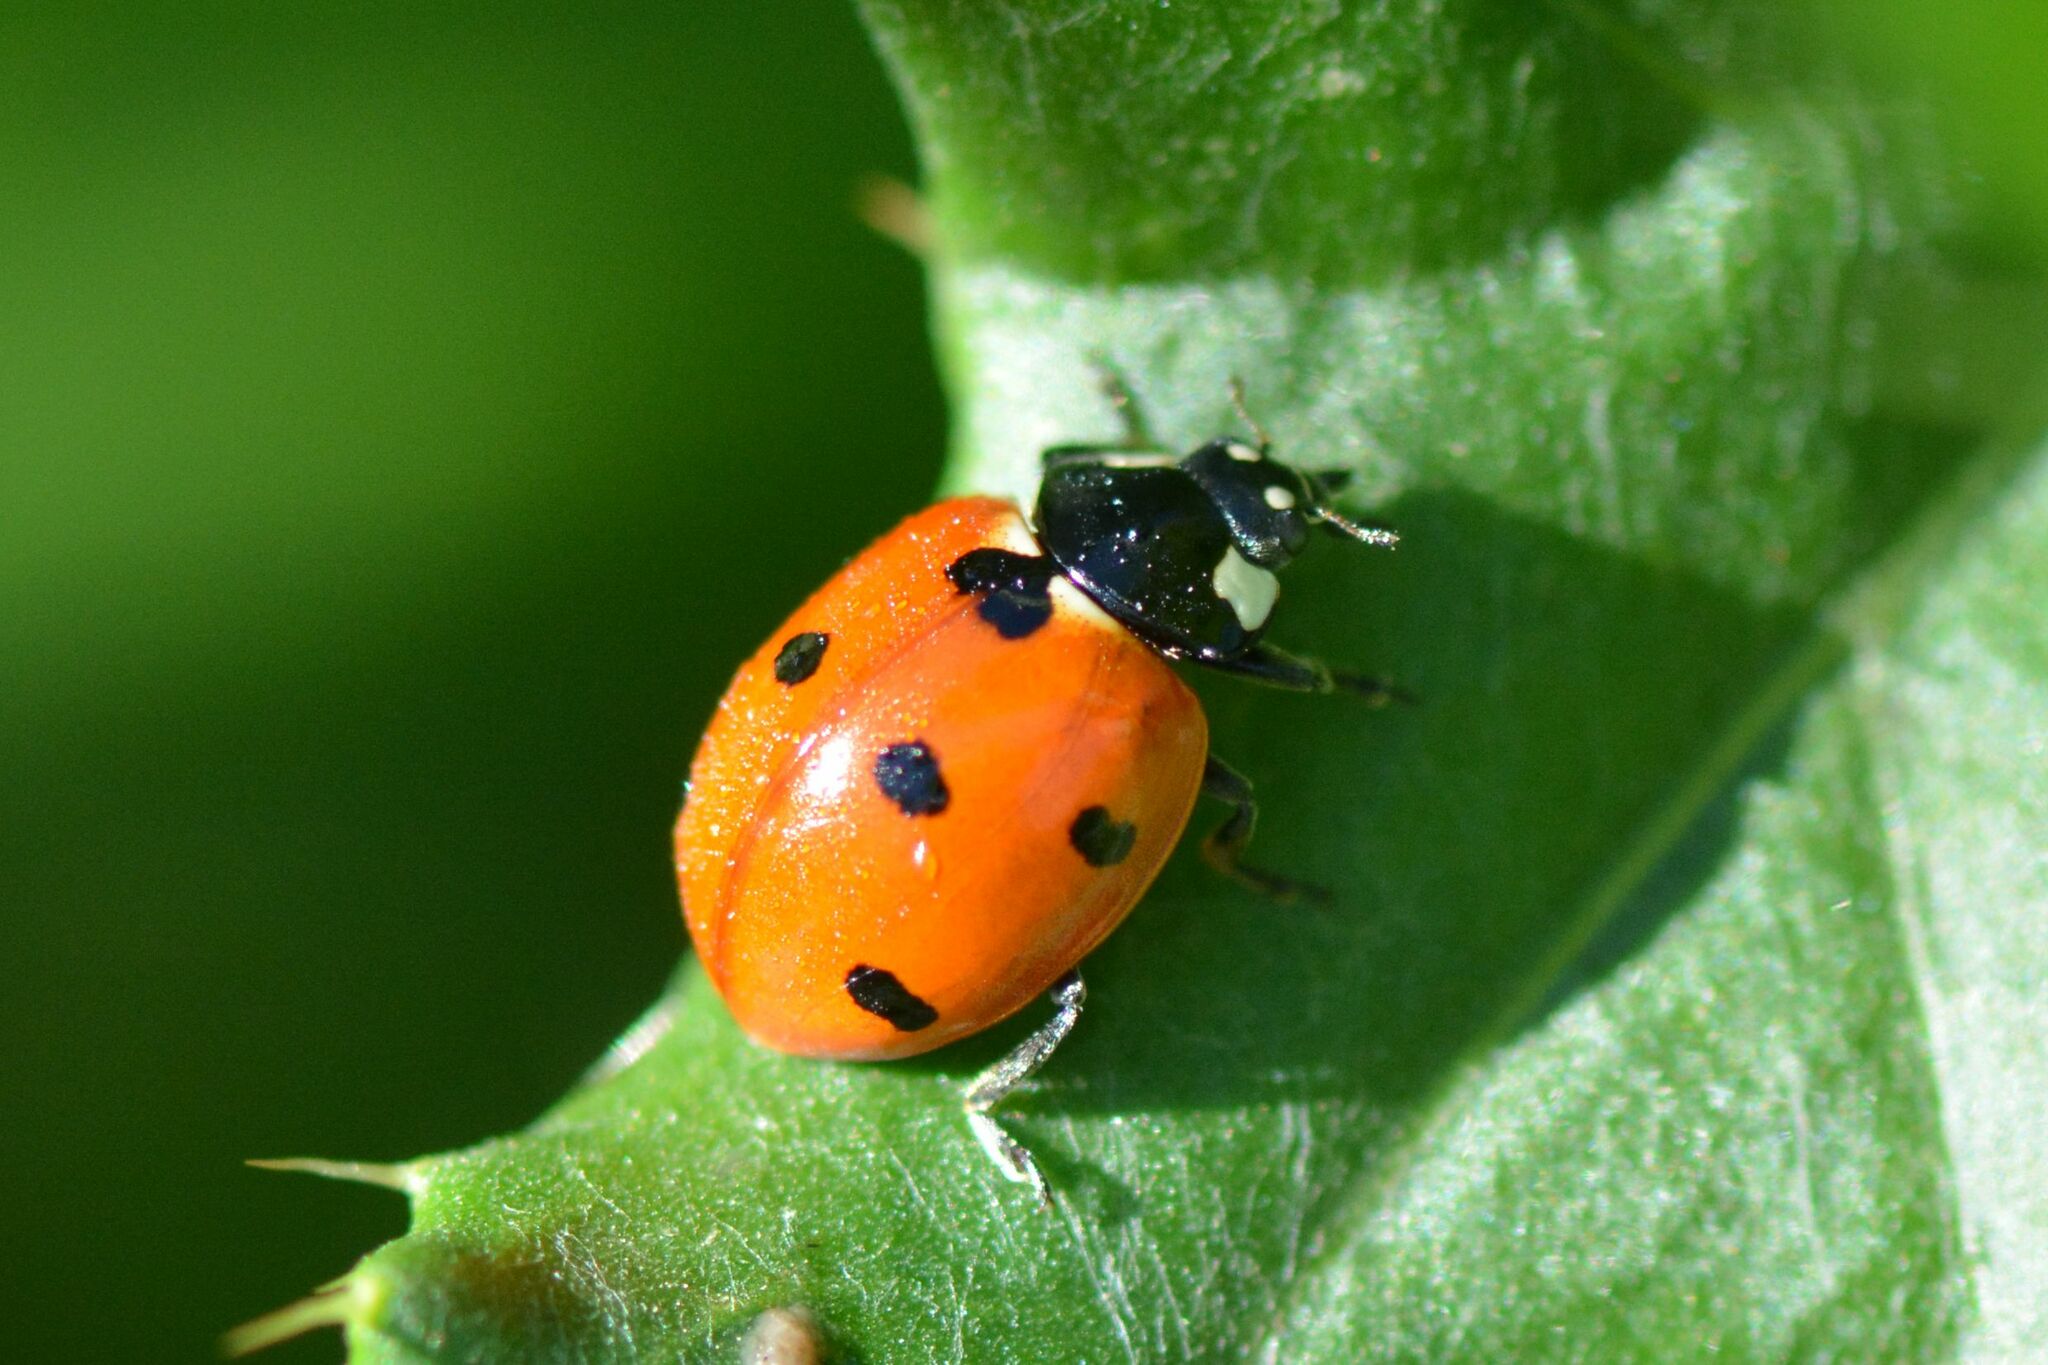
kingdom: Animalia
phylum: Arthropoda
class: Insecta
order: Coleoptera
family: Coccinellidae
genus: Coccinella
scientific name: Coccinella septempunctata
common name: Sevenspotted lady beetle
